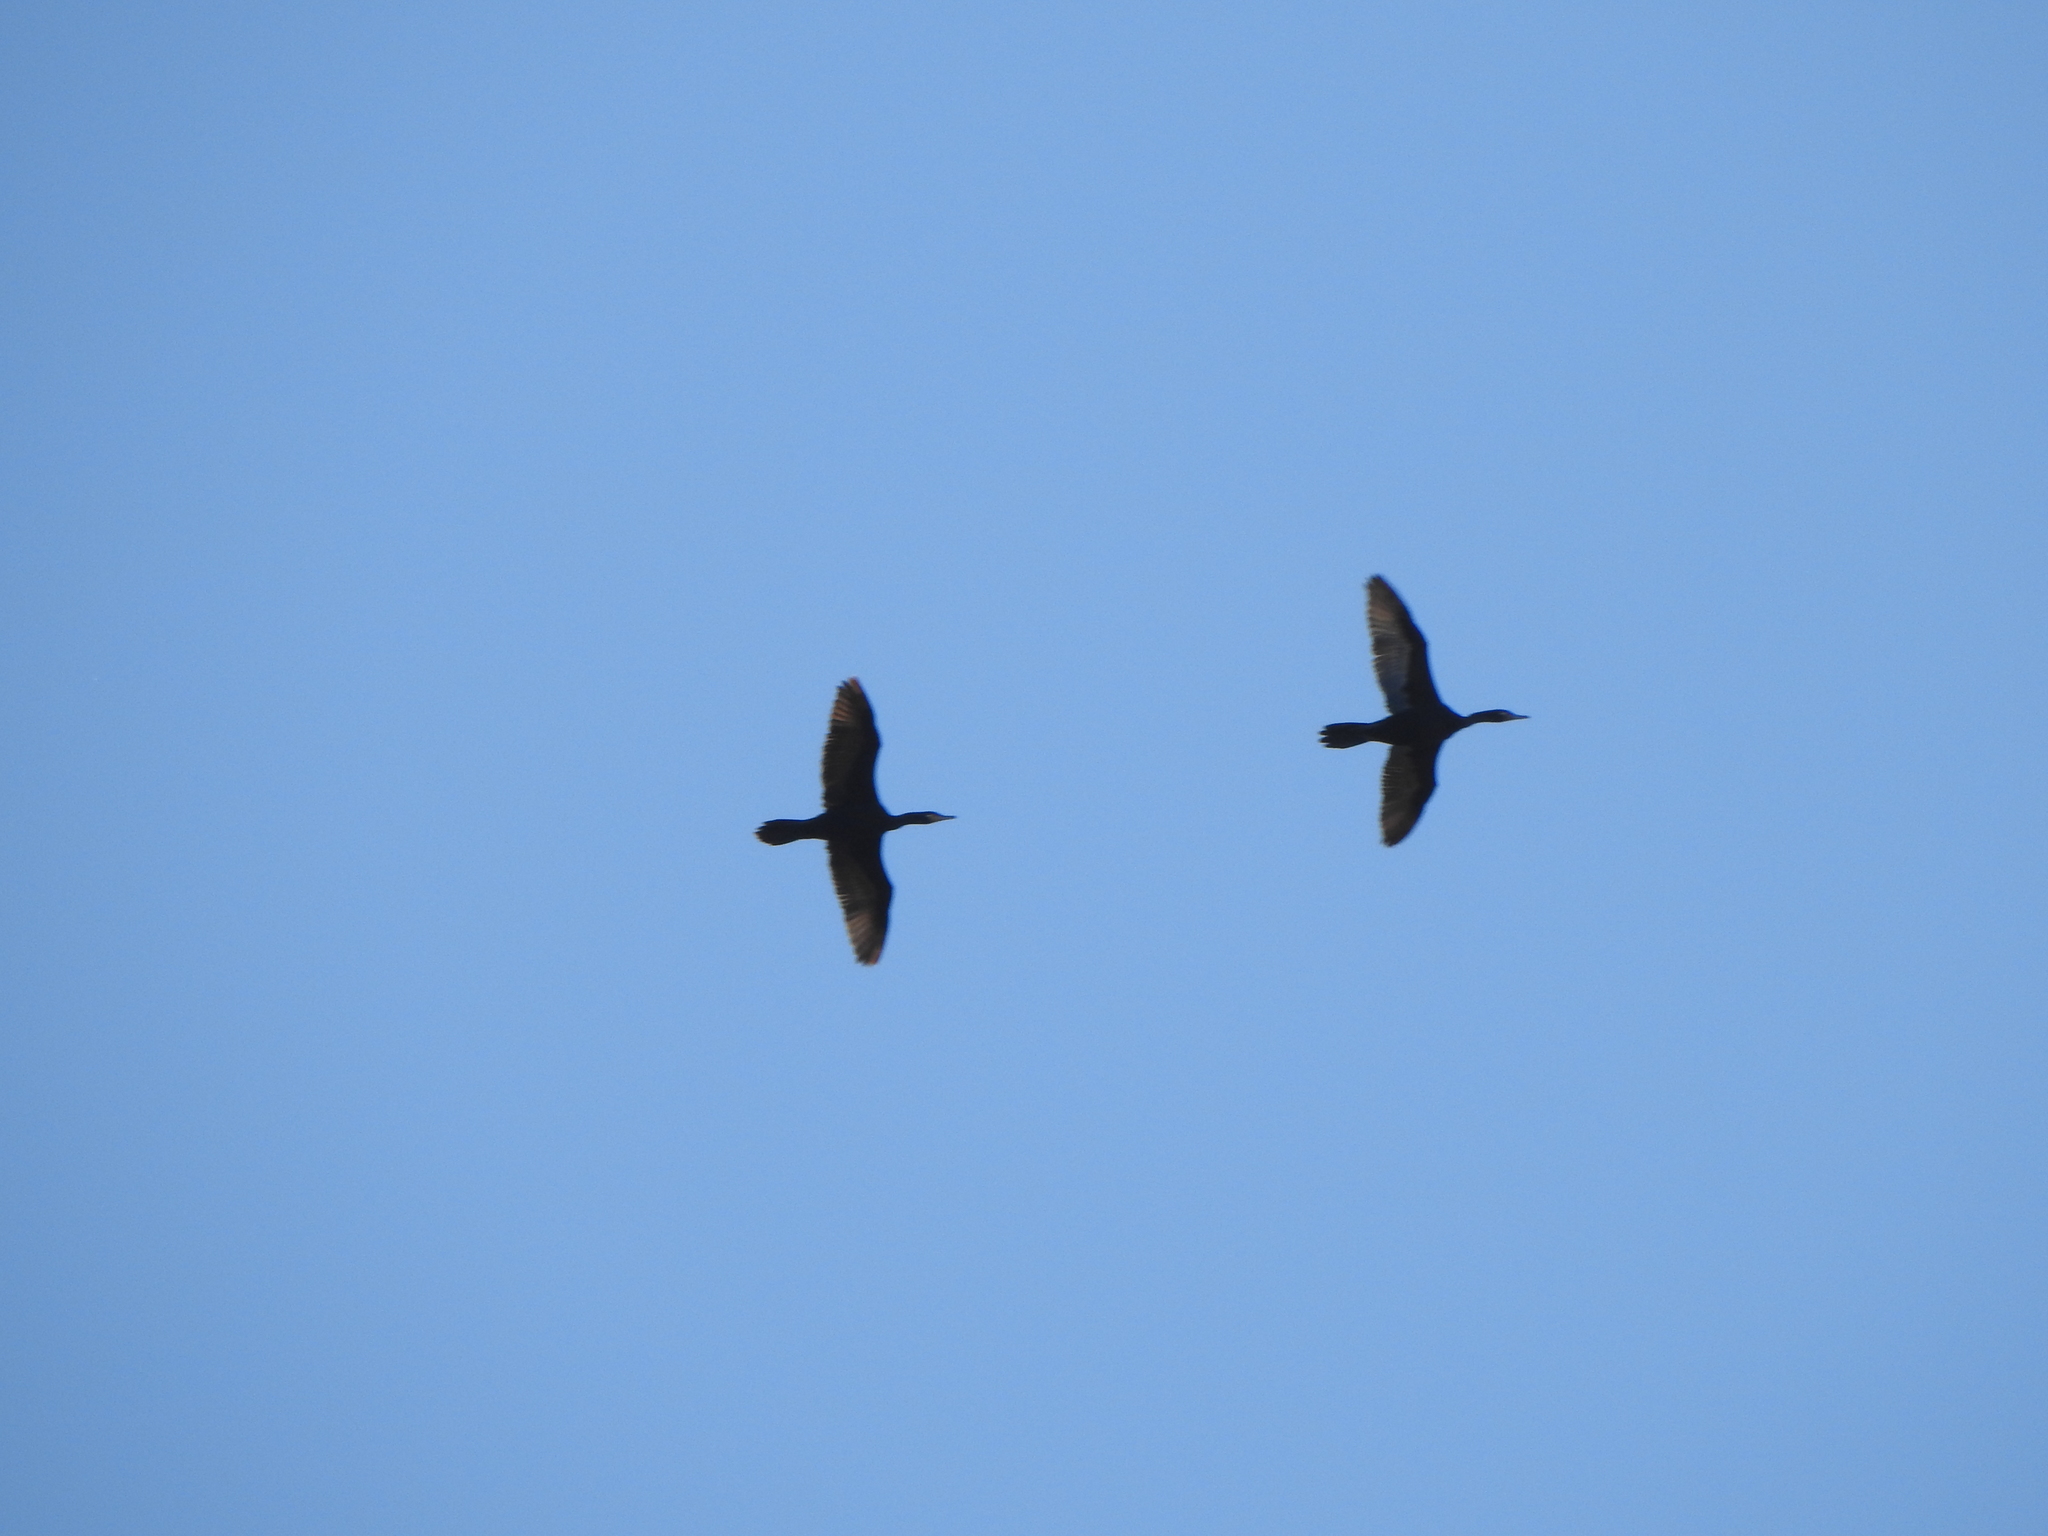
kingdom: Animalia
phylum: Chordata
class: Aves
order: Suliformes
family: Phalacrocoracidae
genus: Phalacrocorax
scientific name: Phalacrocorax brasilianus
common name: Neotropic cormorant
